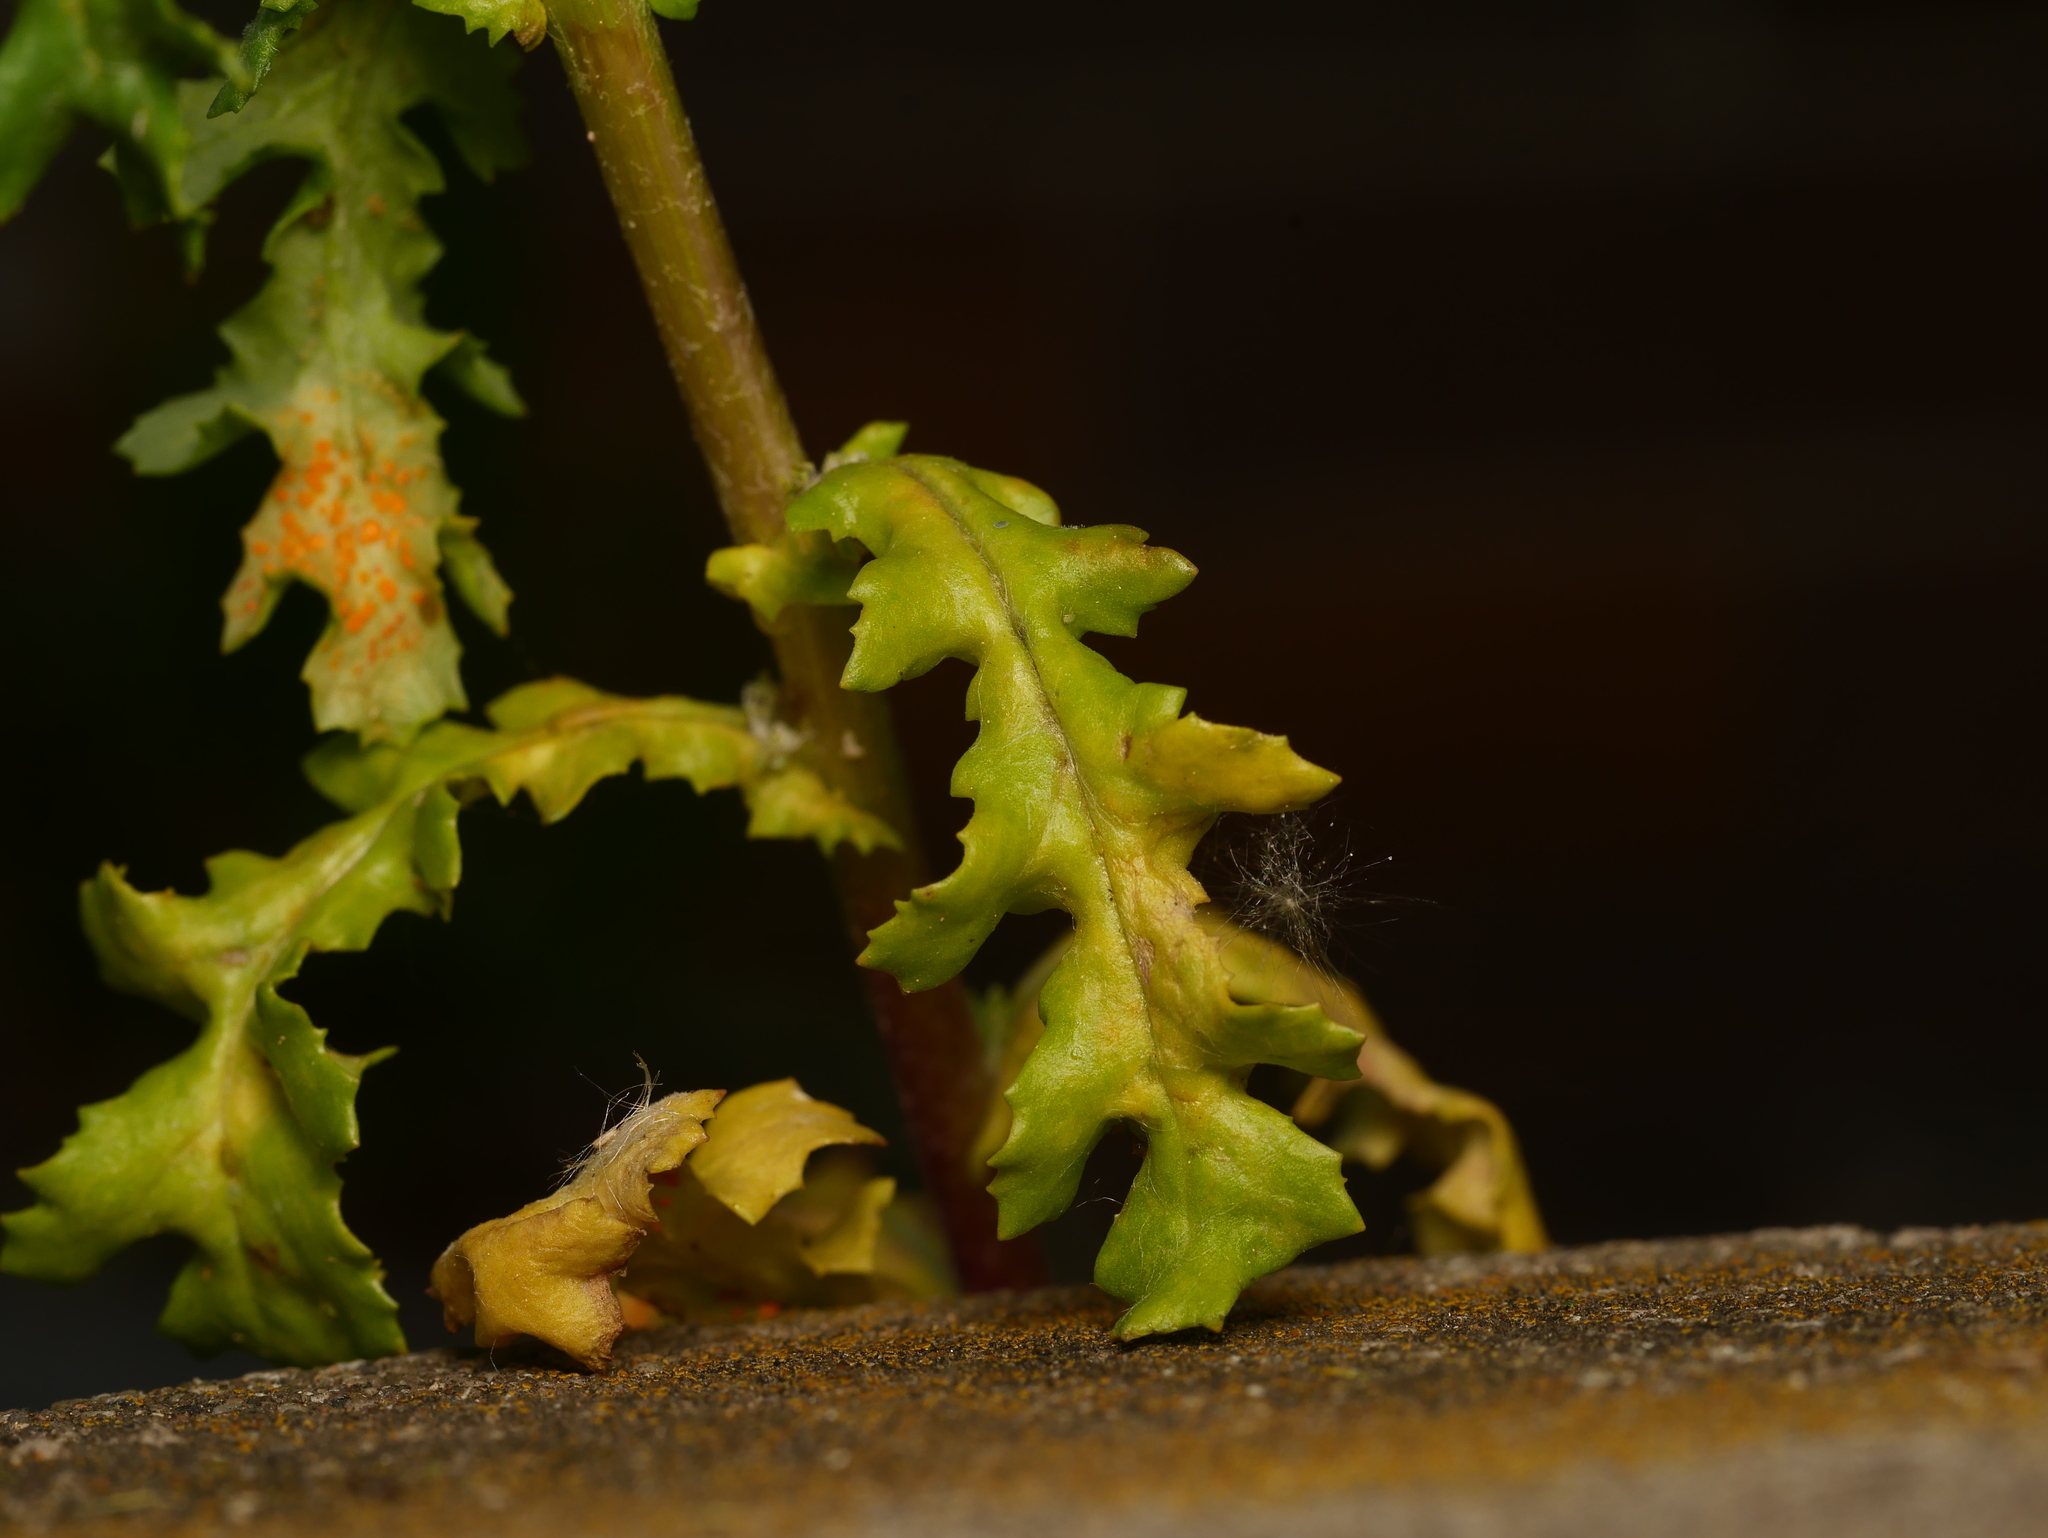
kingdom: Plantae
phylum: Tracheophyta
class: Magnoliopsida
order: Asterales
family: Asteraceae
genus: Senecio
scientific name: Senecio vulgaris
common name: Old-man-in-the-spring
